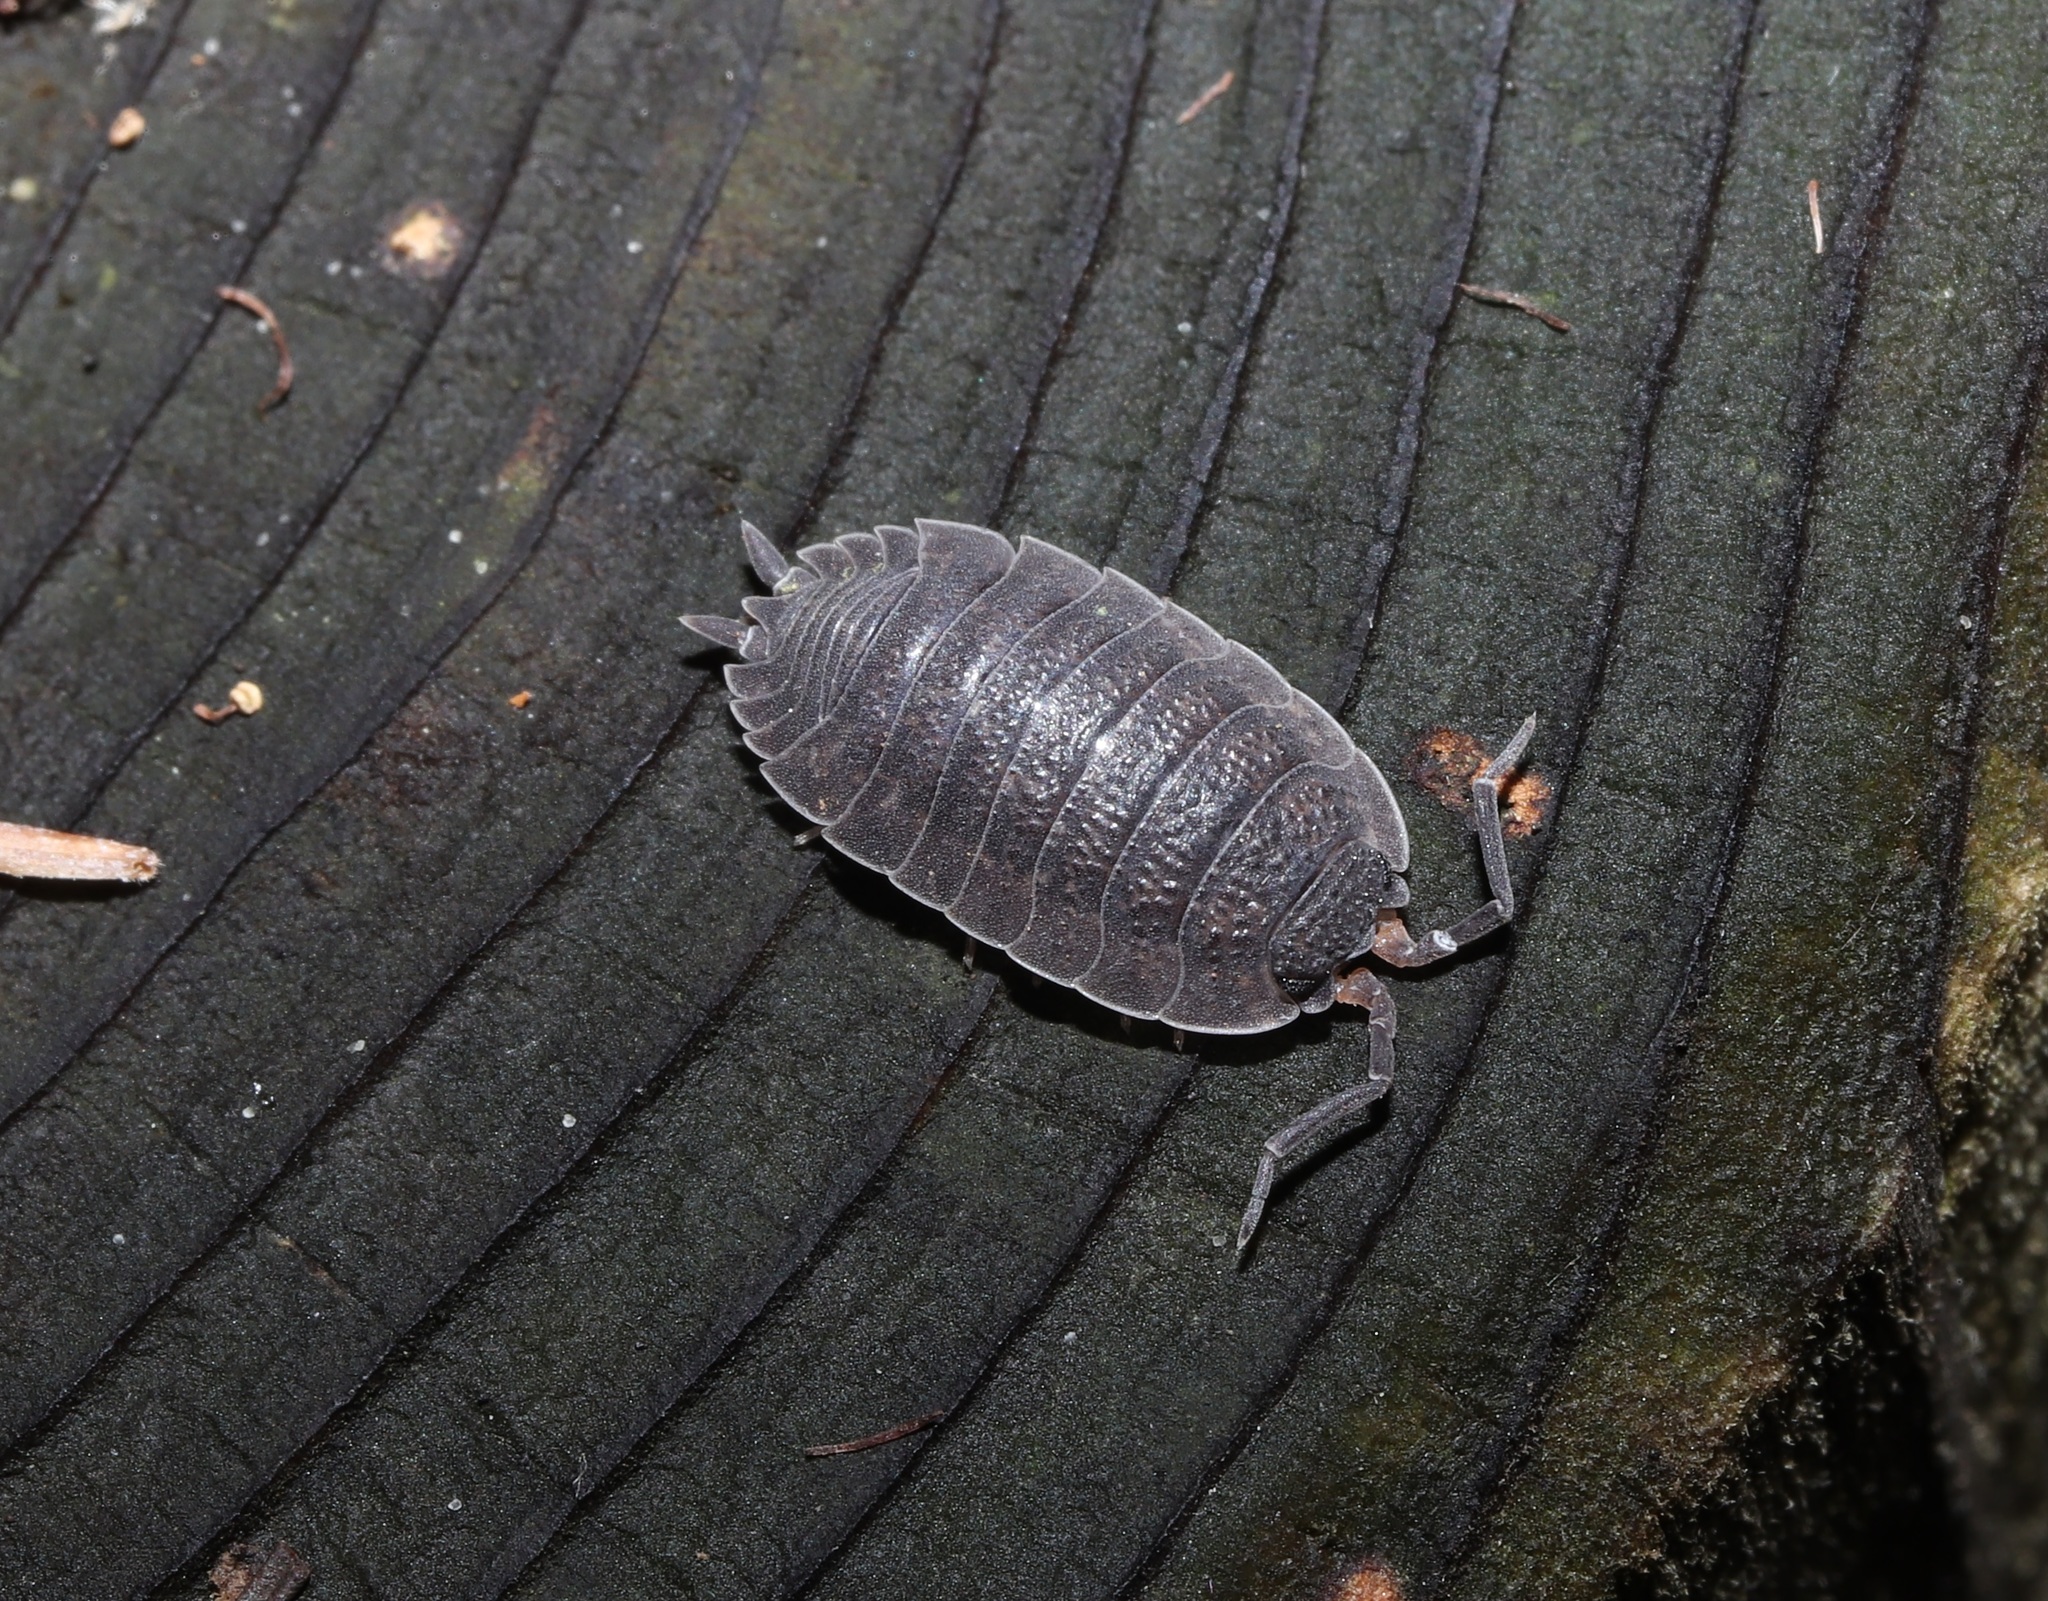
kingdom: Animalia
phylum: Arthropoda
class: Malacostraca
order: Isopoda
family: Porcellionidae
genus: Porcellio
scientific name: Porcellio scaber
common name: Common rough woodlouse
